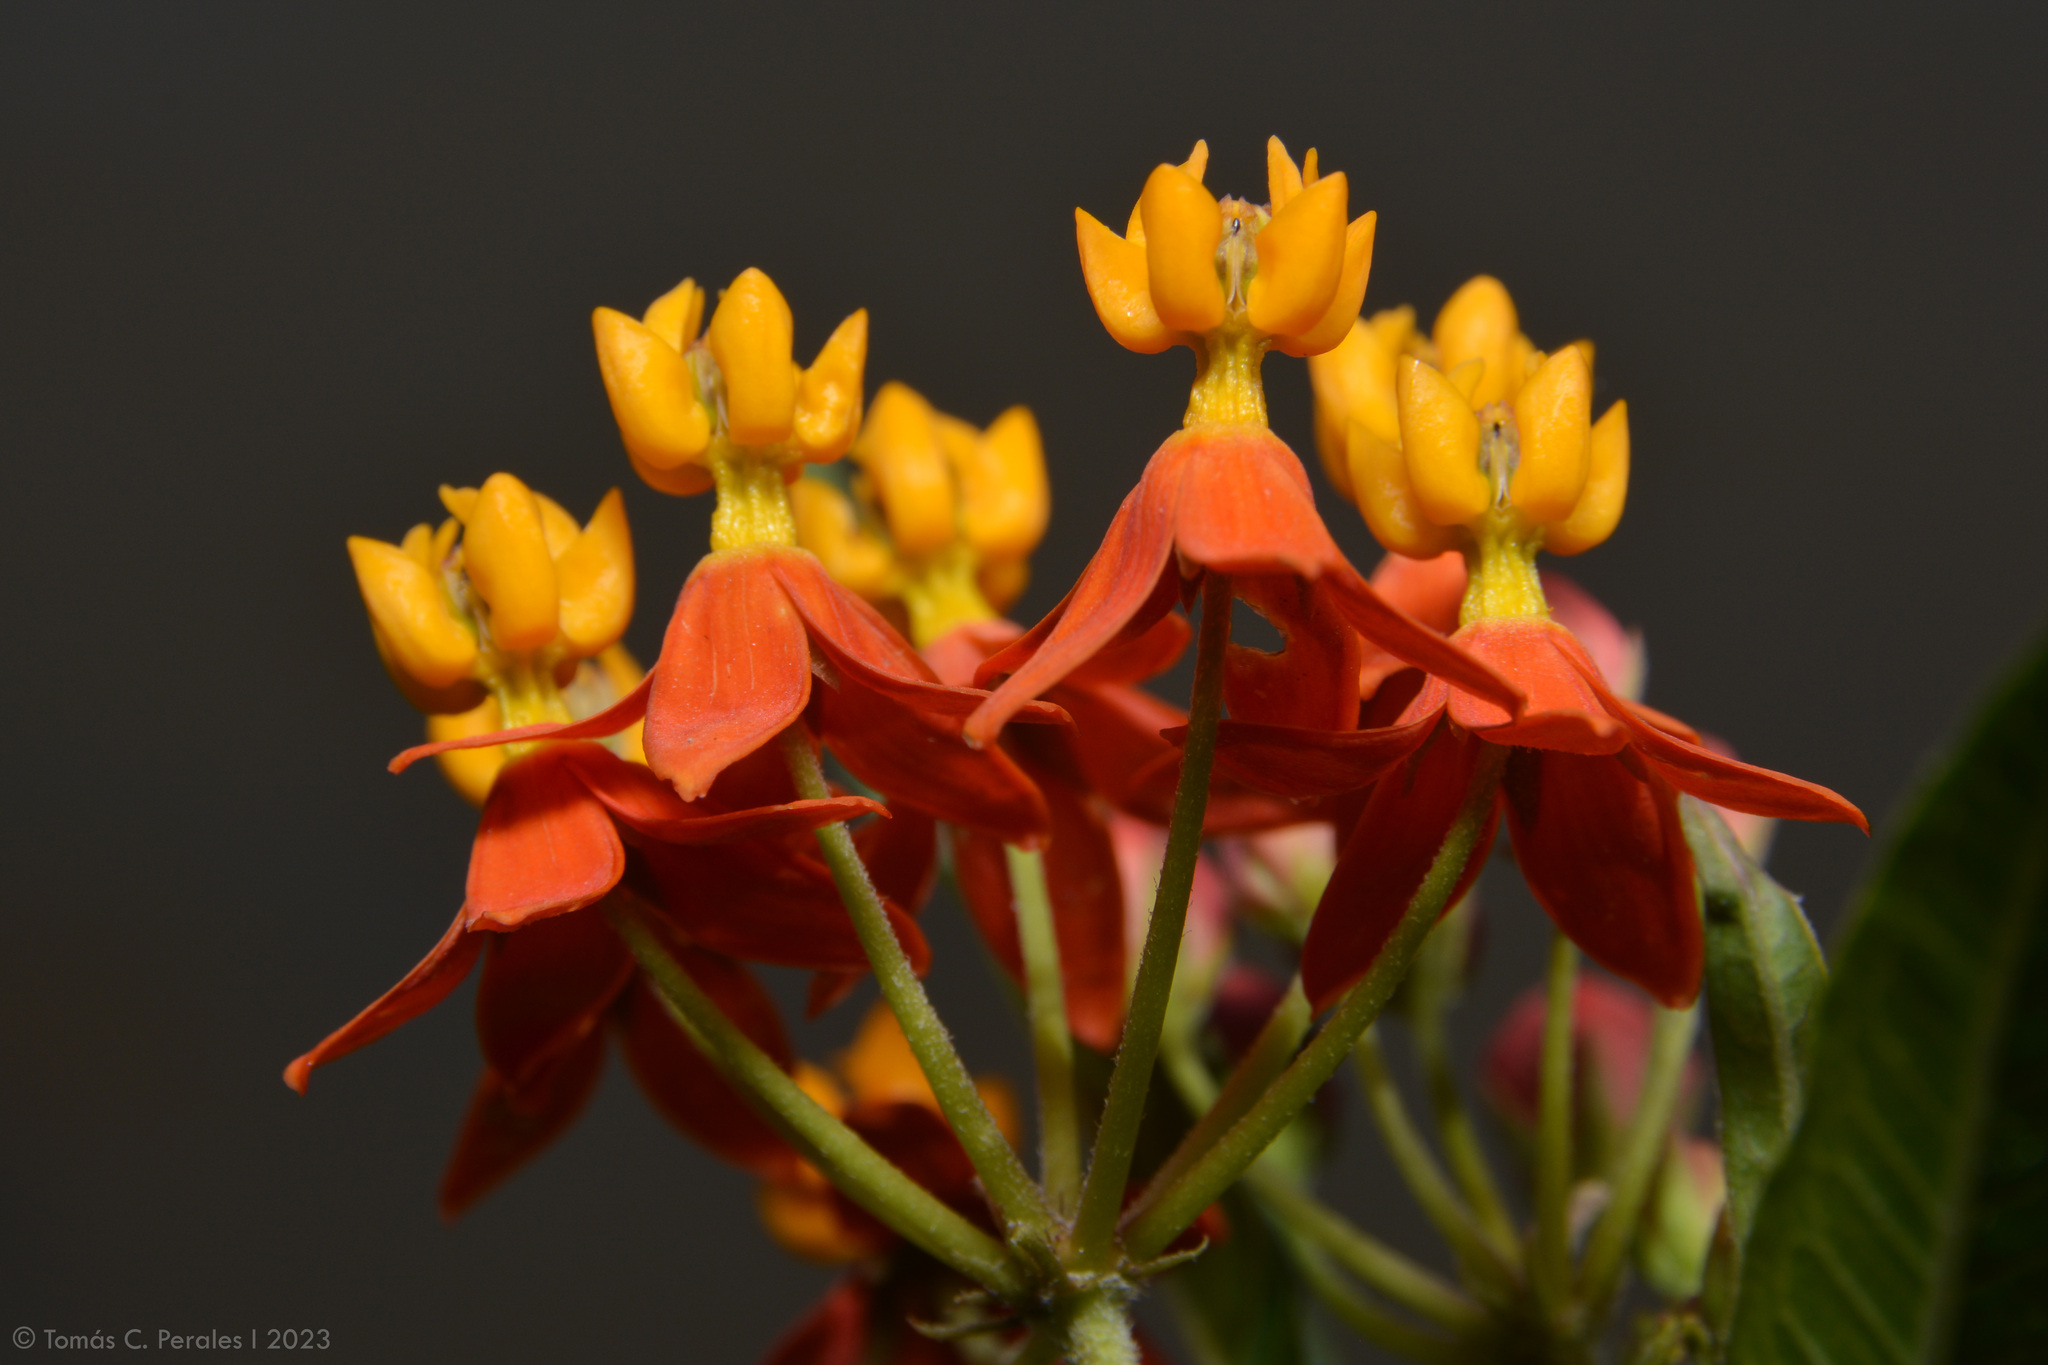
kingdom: Plantae
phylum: Tracheophyta
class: Magnoliopsida
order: Gentianales
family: Apocynaceae
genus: Asclepias
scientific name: Asclepias curassavica
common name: Bloodflower
